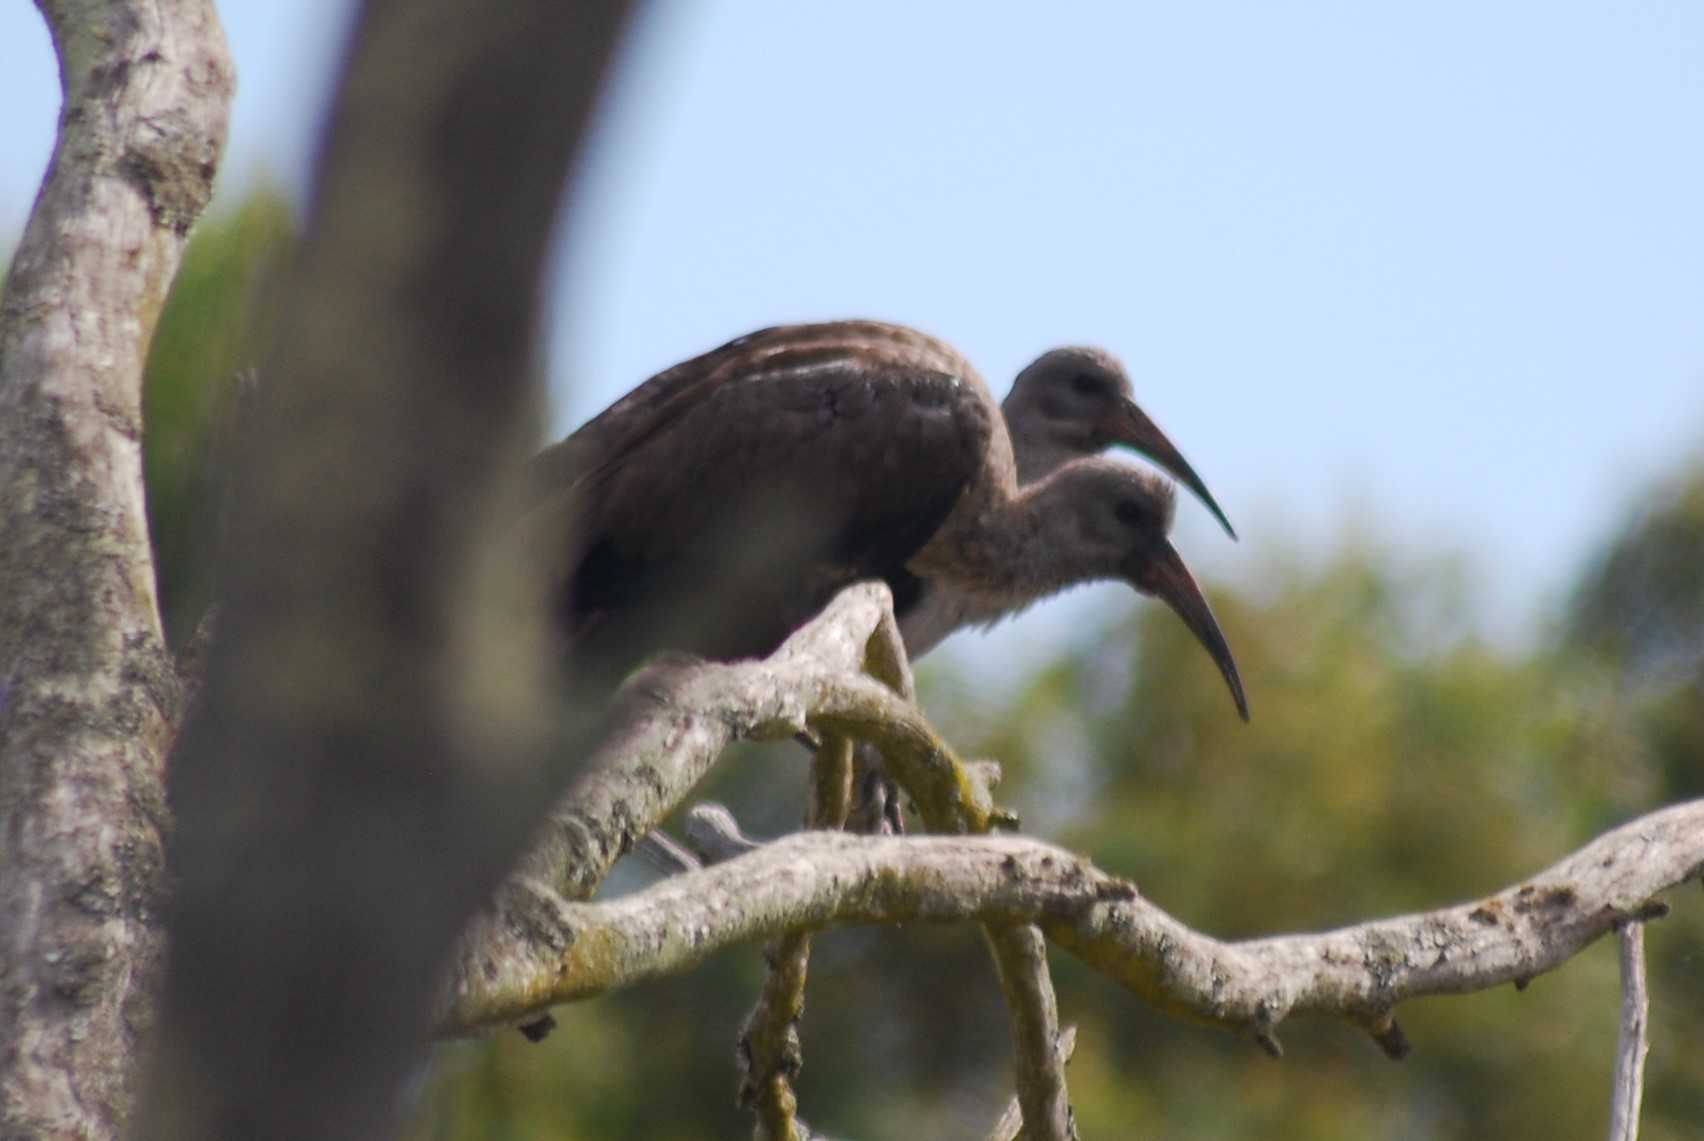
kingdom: Animalia
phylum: Chordata
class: Aves
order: Pelecaniformes
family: Threskiornithidae
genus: Bostrychia
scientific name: Bostrychia hagedash
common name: Hadada ibis
